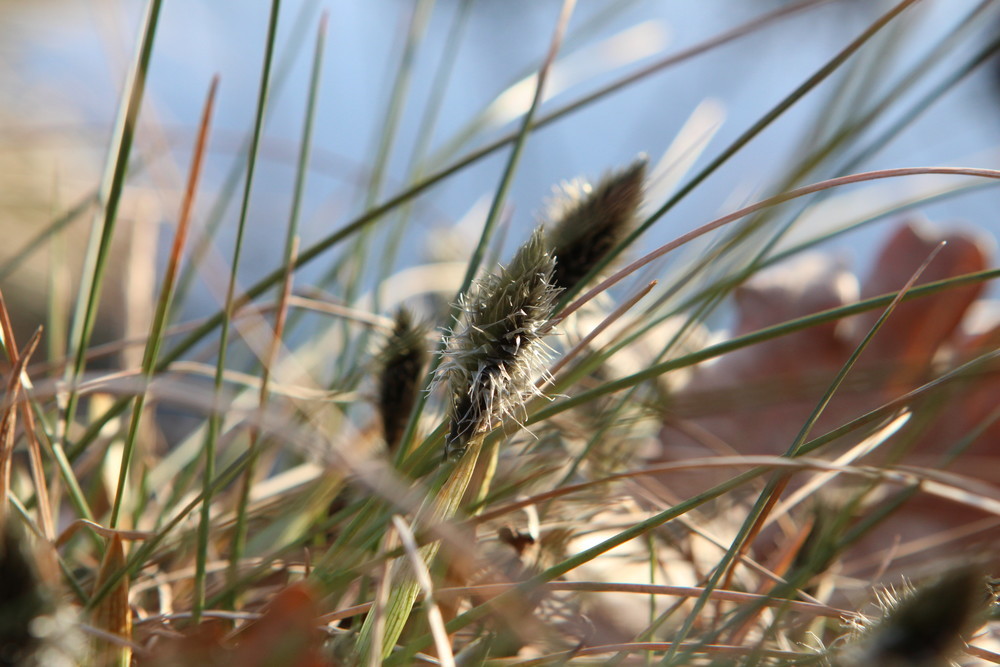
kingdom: Plantae
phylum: Tracheophyta
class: Liliopsida
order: Poales
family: Cyperaceae
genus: Eriophorum
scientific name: Eriophorum vaginatum
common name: Hare's-tail cottongrass
